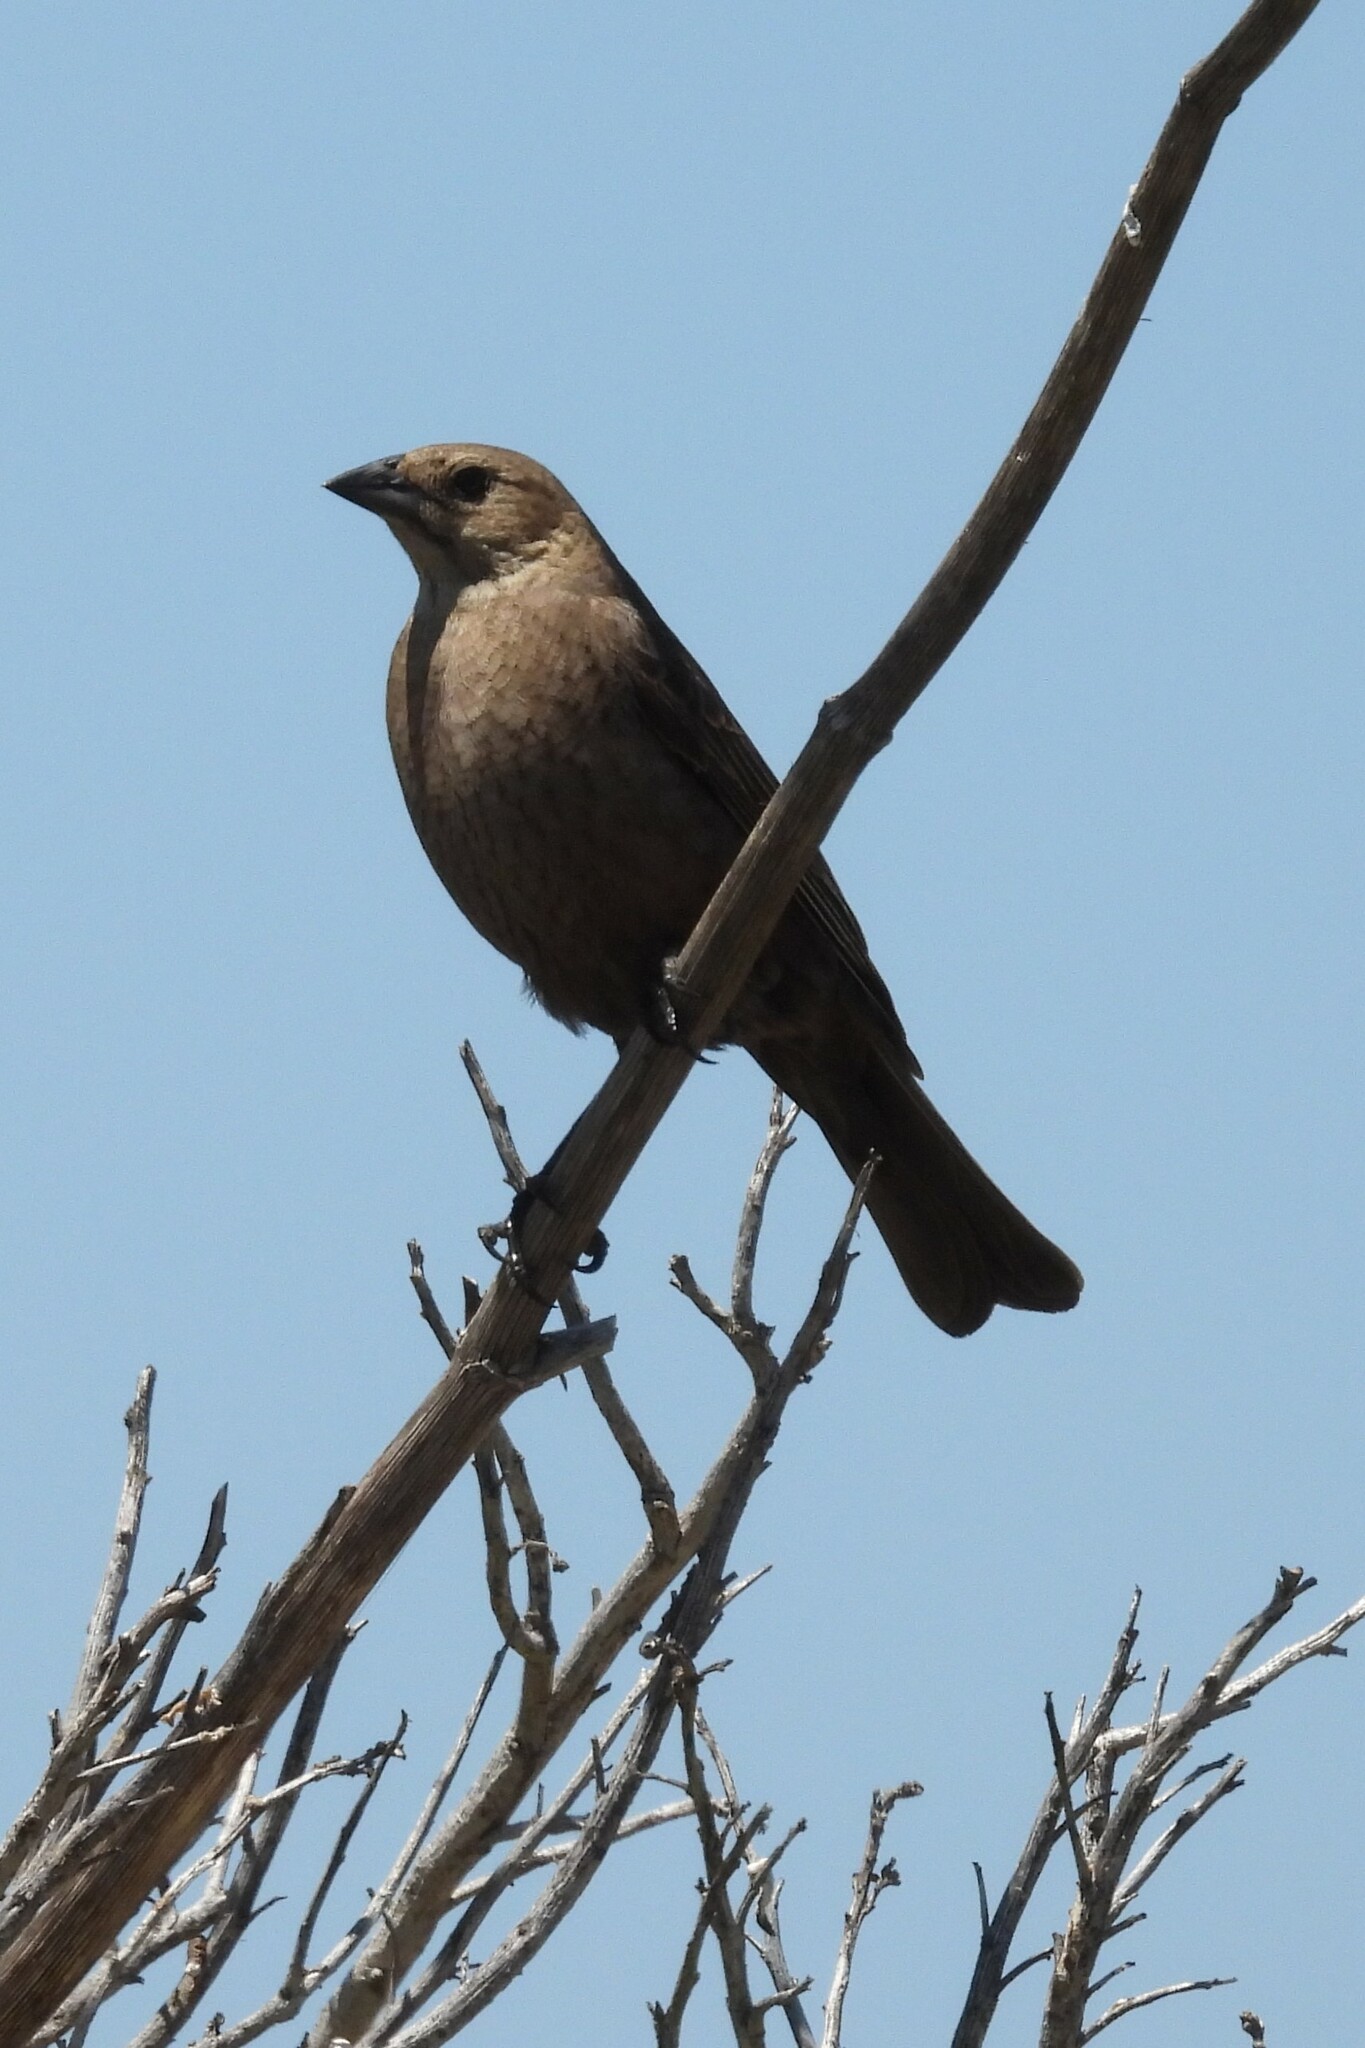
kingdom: Animalia
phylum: Chordata
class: Aves
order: Passeriformes
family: Icteridae
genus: Molothrus
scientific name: Molothrus ater
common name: Brown-headed cowbird
